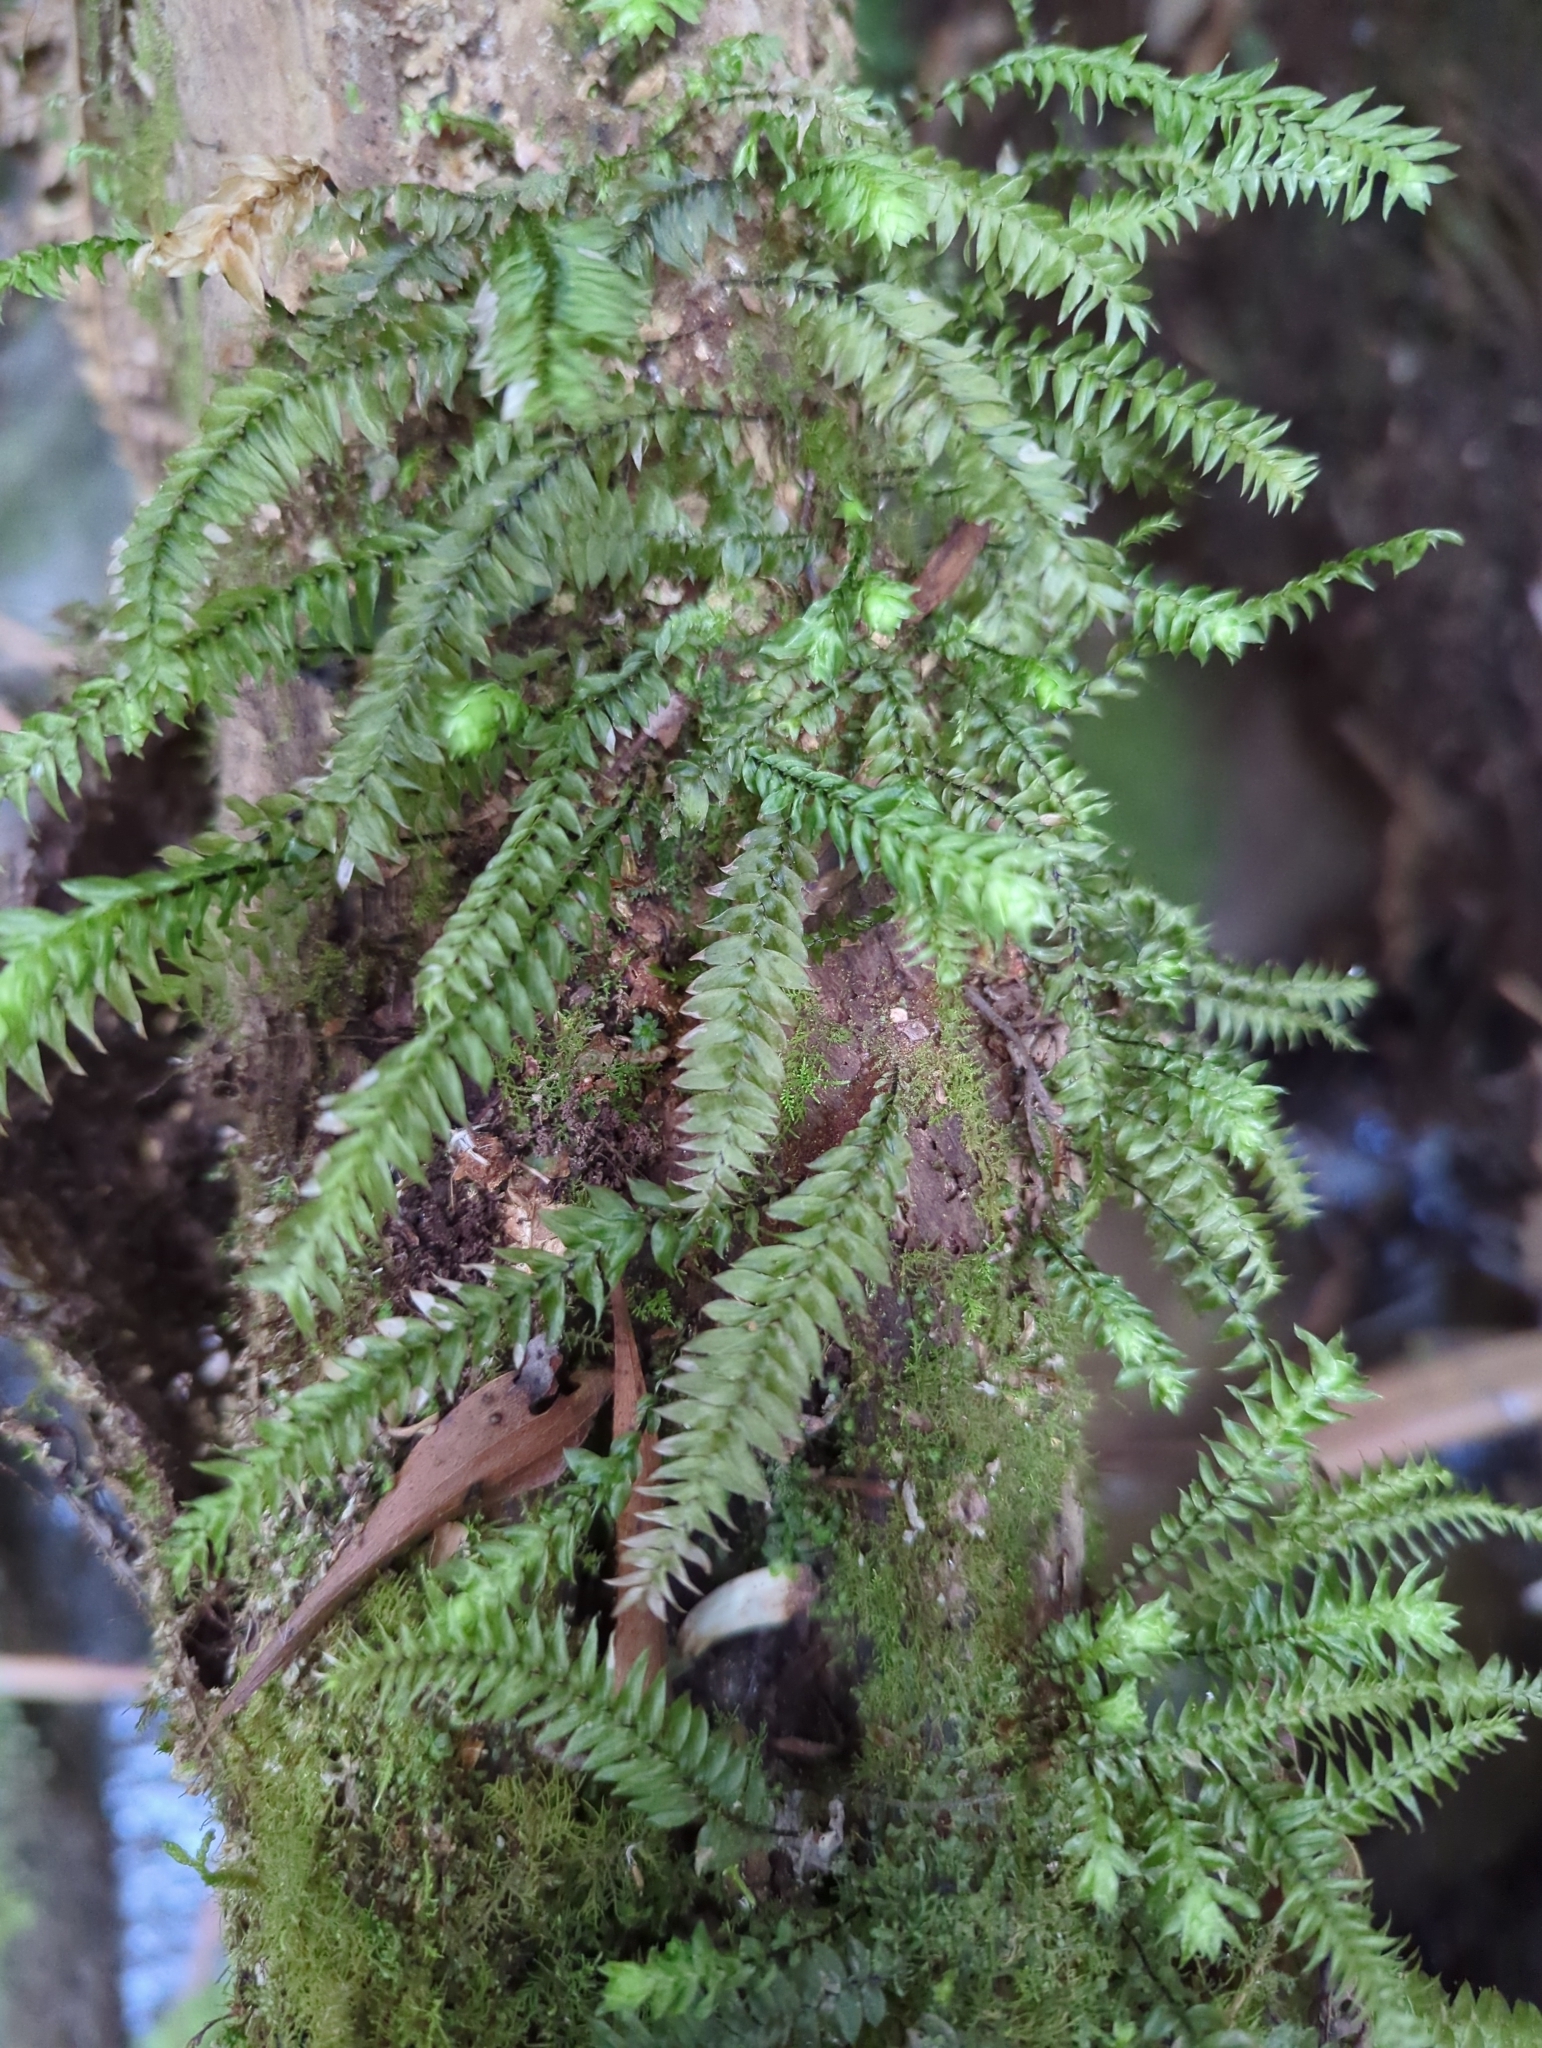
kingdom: Plantae
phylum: Bryophyta
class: Bryopsida
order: Hypopterygiales
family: Hypopterygiaceae
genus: Cyathophorum
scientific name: Cyathophorum bulbosum
